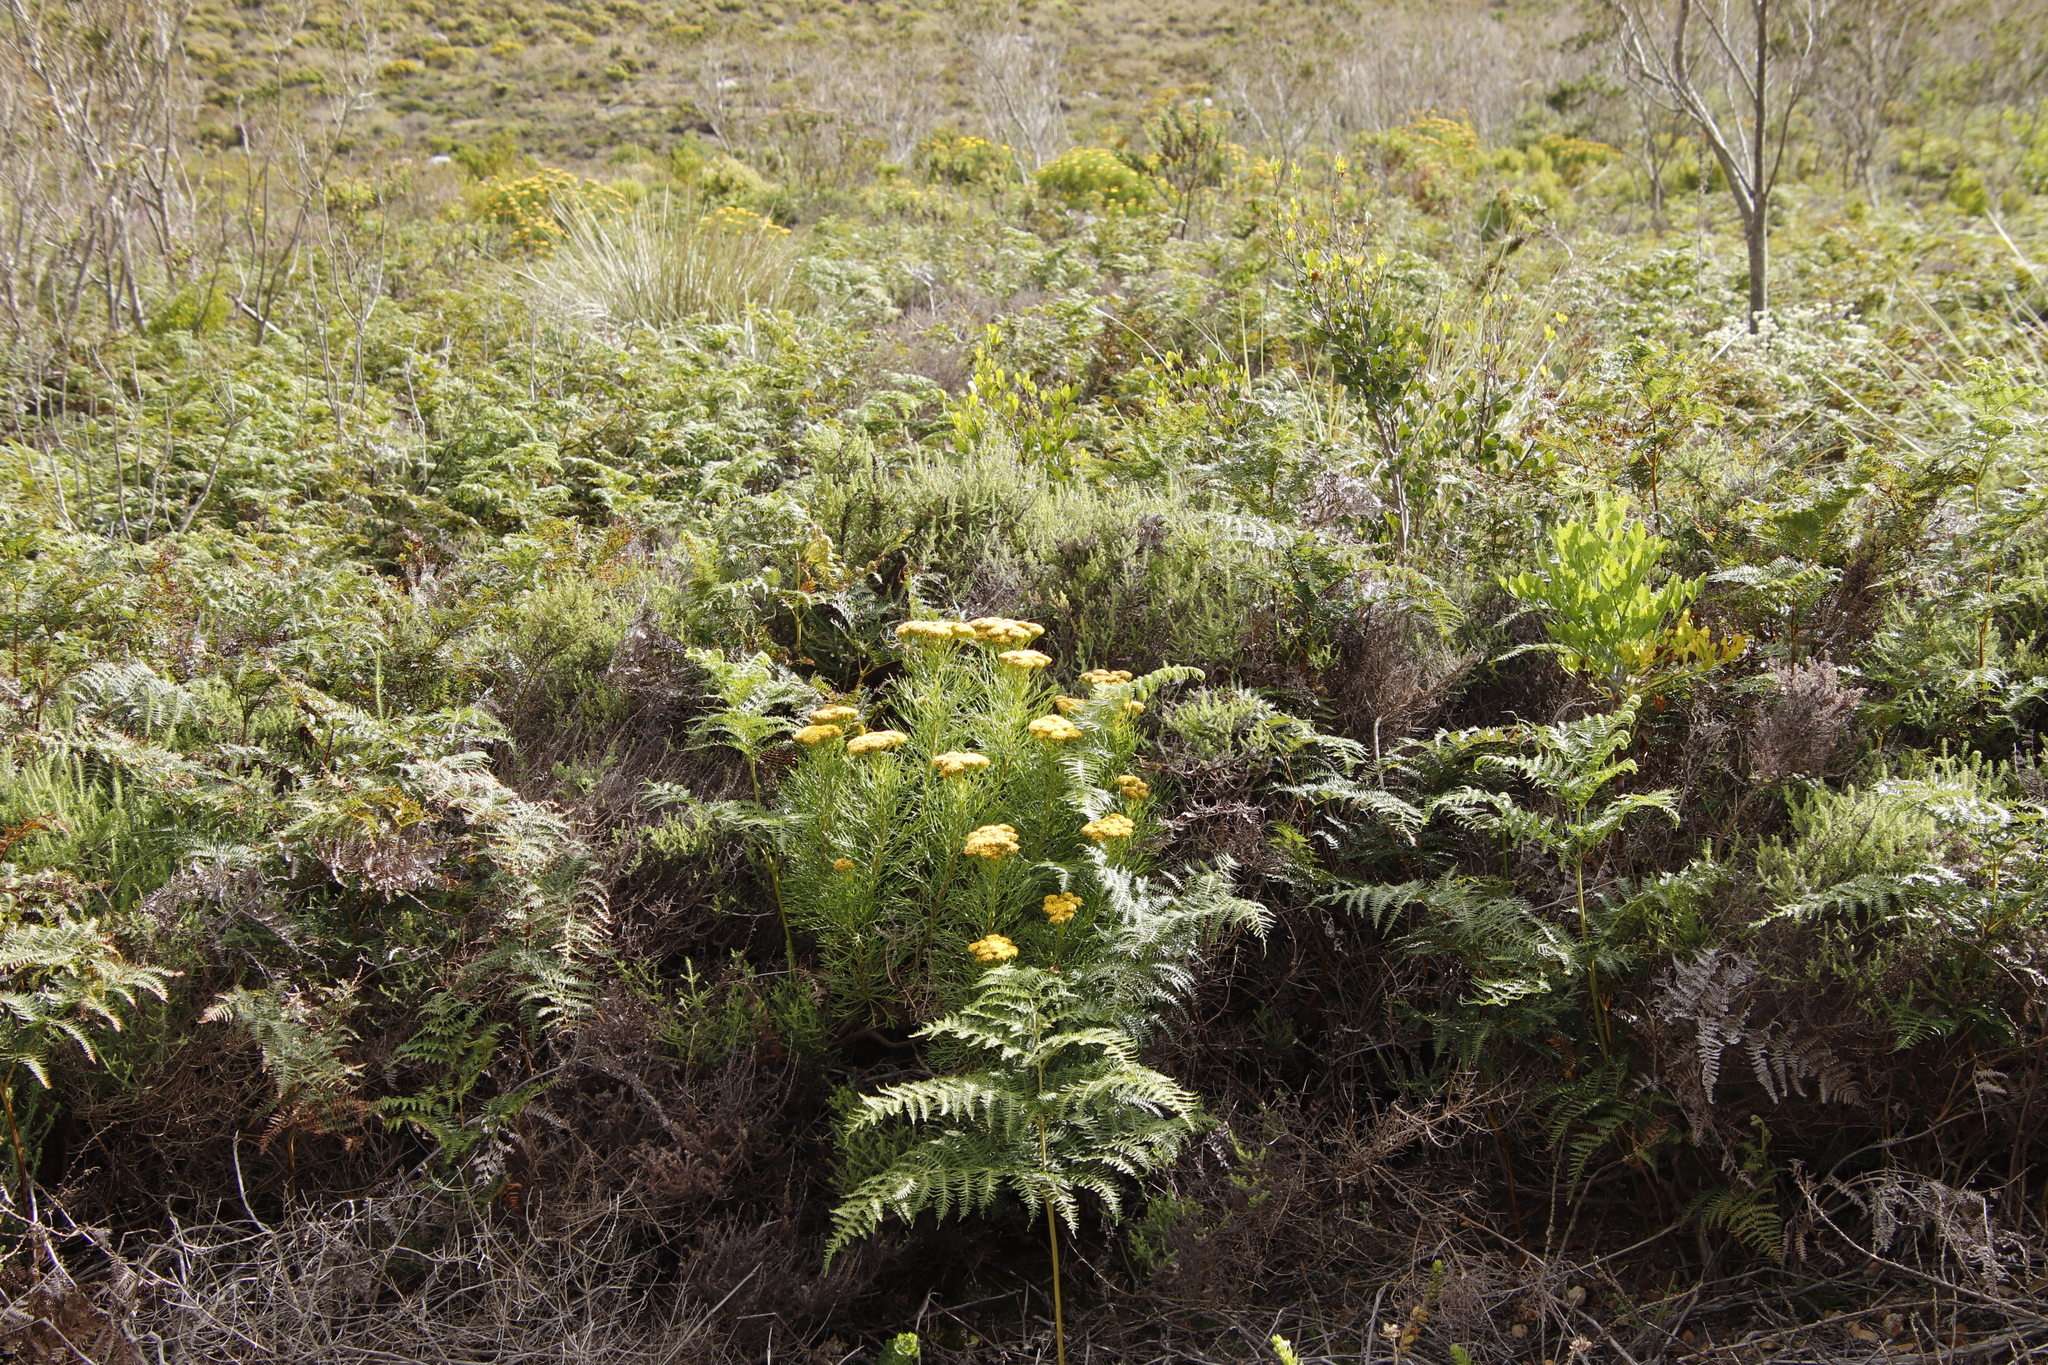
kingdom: Plantae
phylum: Tracheophyta
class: Magnoliopsida
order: Asterales
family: Asteraceae
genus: Hymenolepis
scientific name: Hymenolepis crithmifolia
